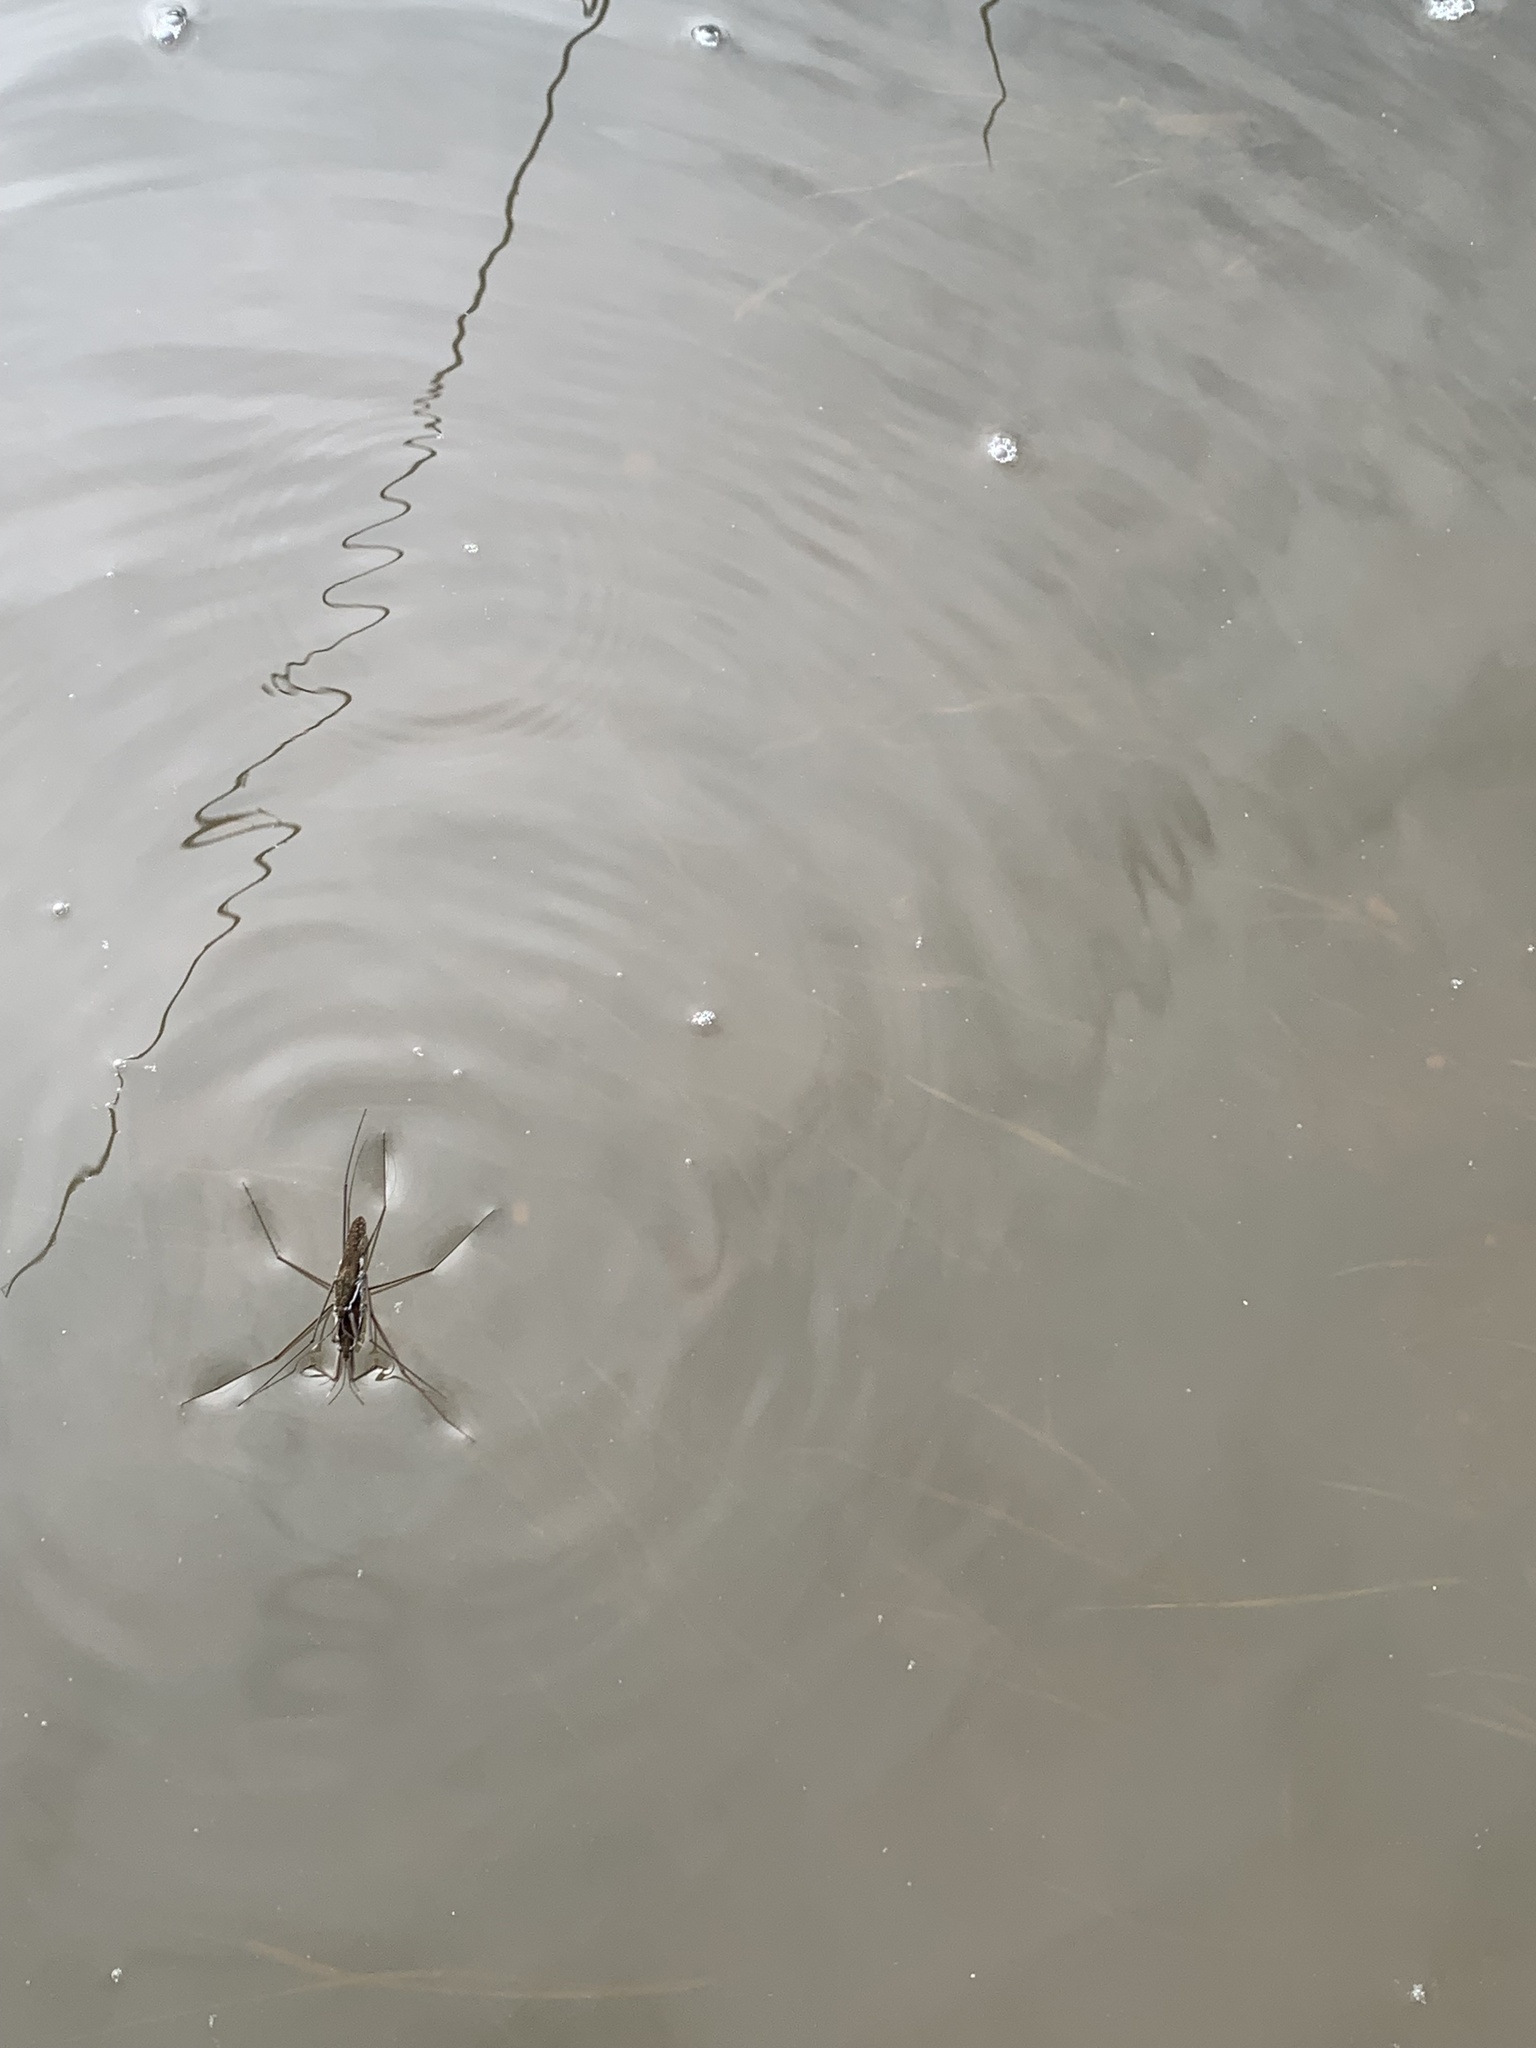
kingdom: Animalia
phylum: Arthropoda
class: Insecta
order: Hemiptera
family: Gerridae
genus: Aquarius
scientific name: Aquarius remigis
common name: Common water strider
